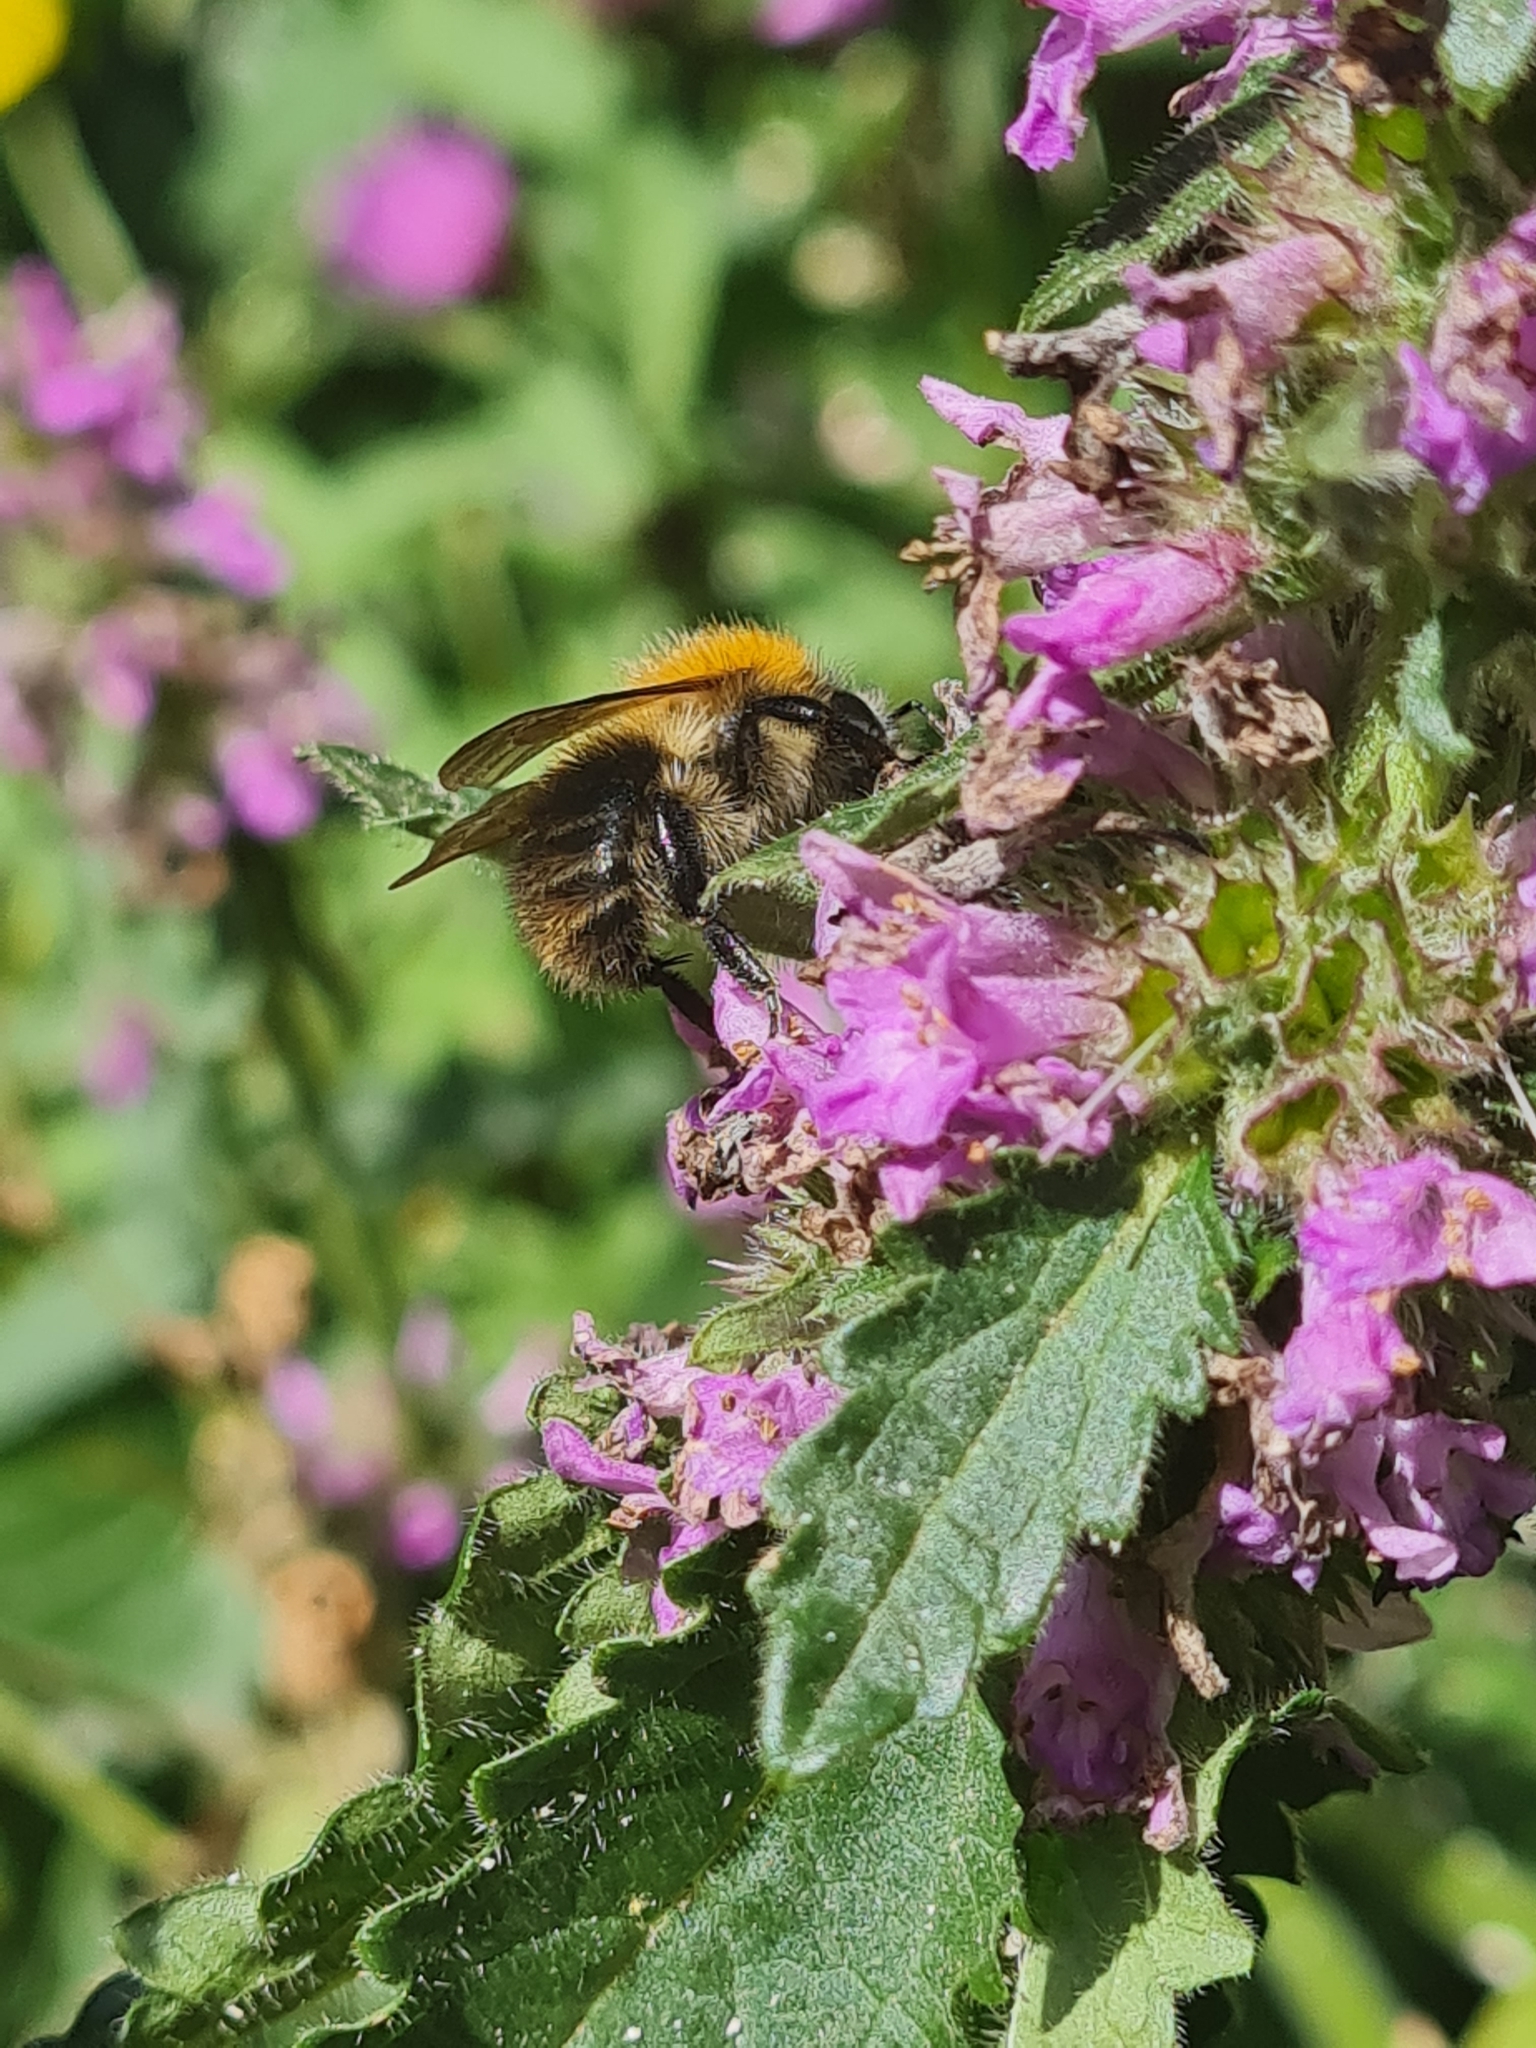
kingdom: Animalia
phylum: Arthropoda
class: Insecta
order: Hymenoptera
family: Apidae
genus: Bombus
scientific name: Bombus pascuorum
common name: Common carder bee
